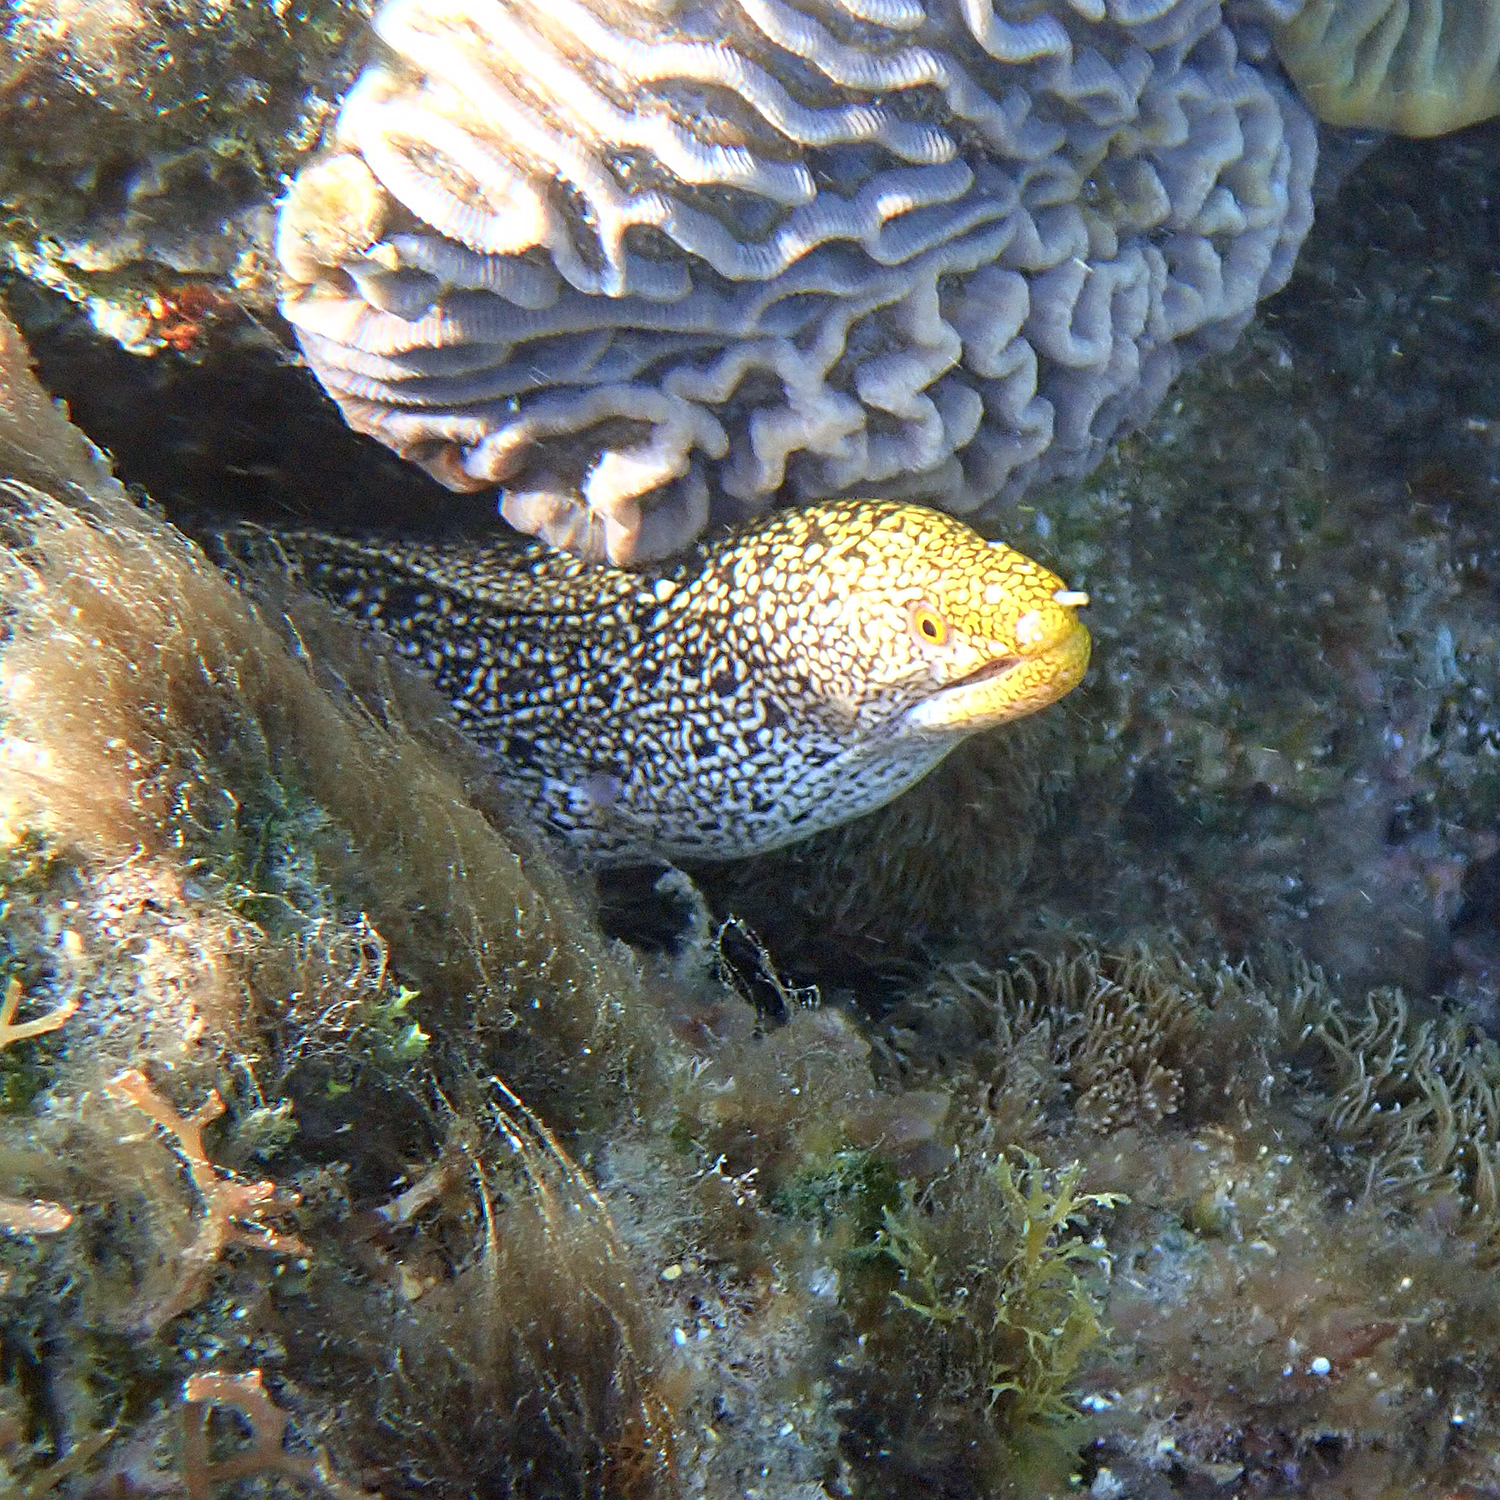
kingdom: Animalia
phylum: Chordata
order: Anguilliformes
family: Muraenidae
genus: Gymnothorax
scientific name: Gymnothorax eurostus
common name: Stout moray
